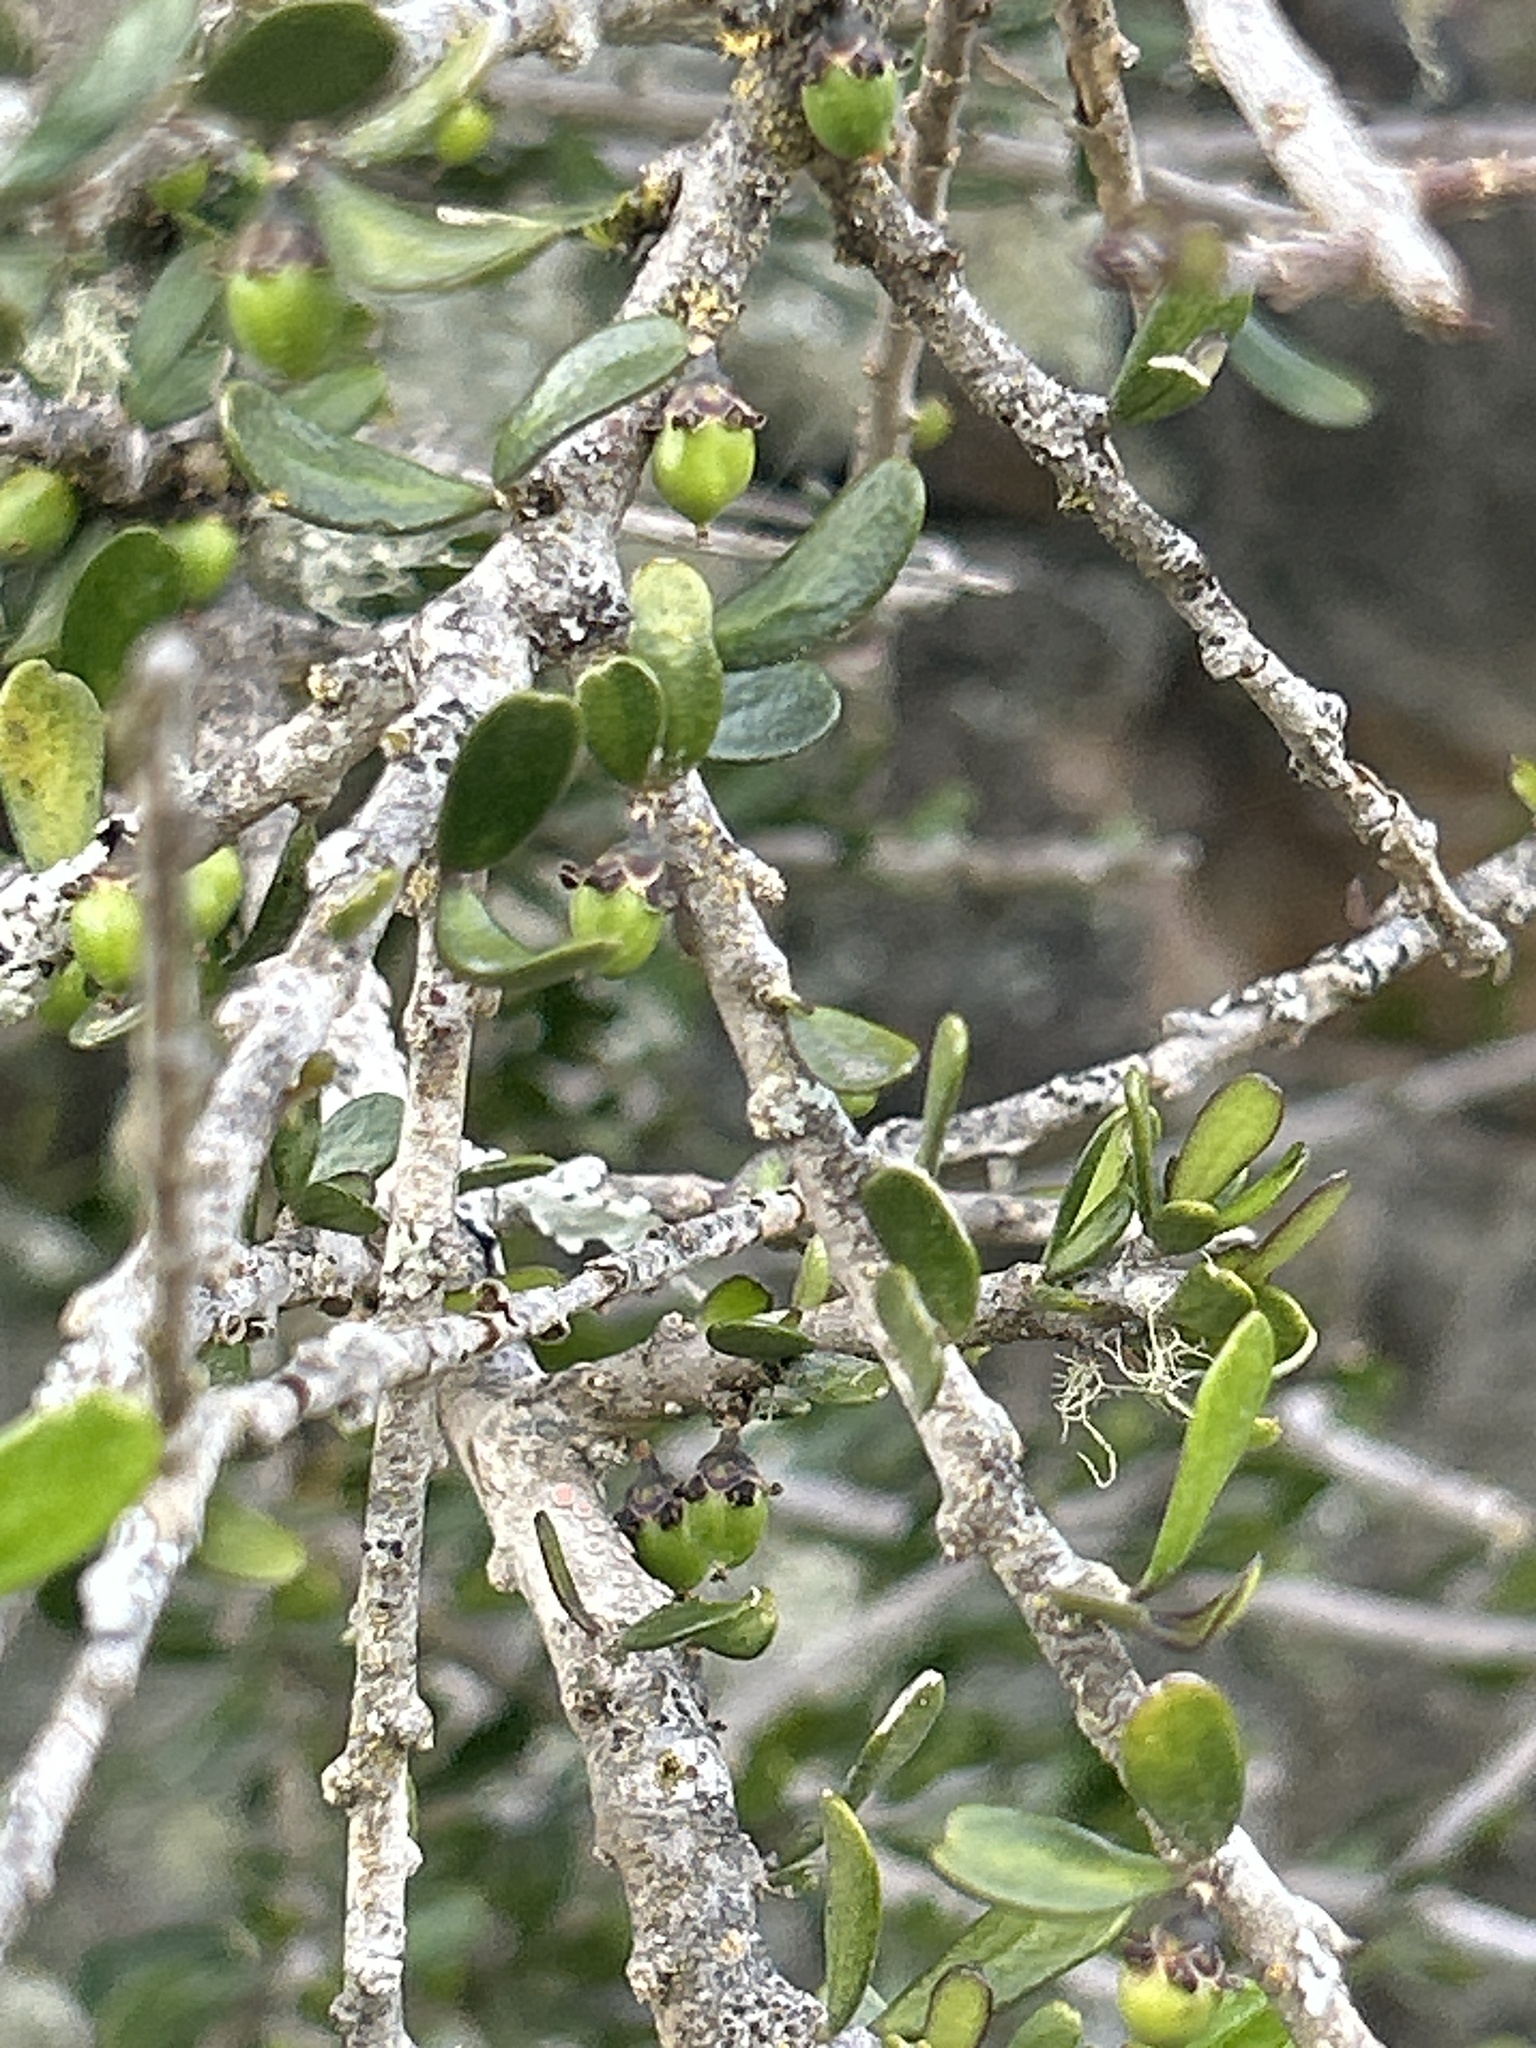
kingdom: Plantae
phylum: Tracheophyta
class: Magnoliopsida
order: Malpighiales
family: Violaceae
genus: Melicytus
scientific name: Melicytus alpinus
